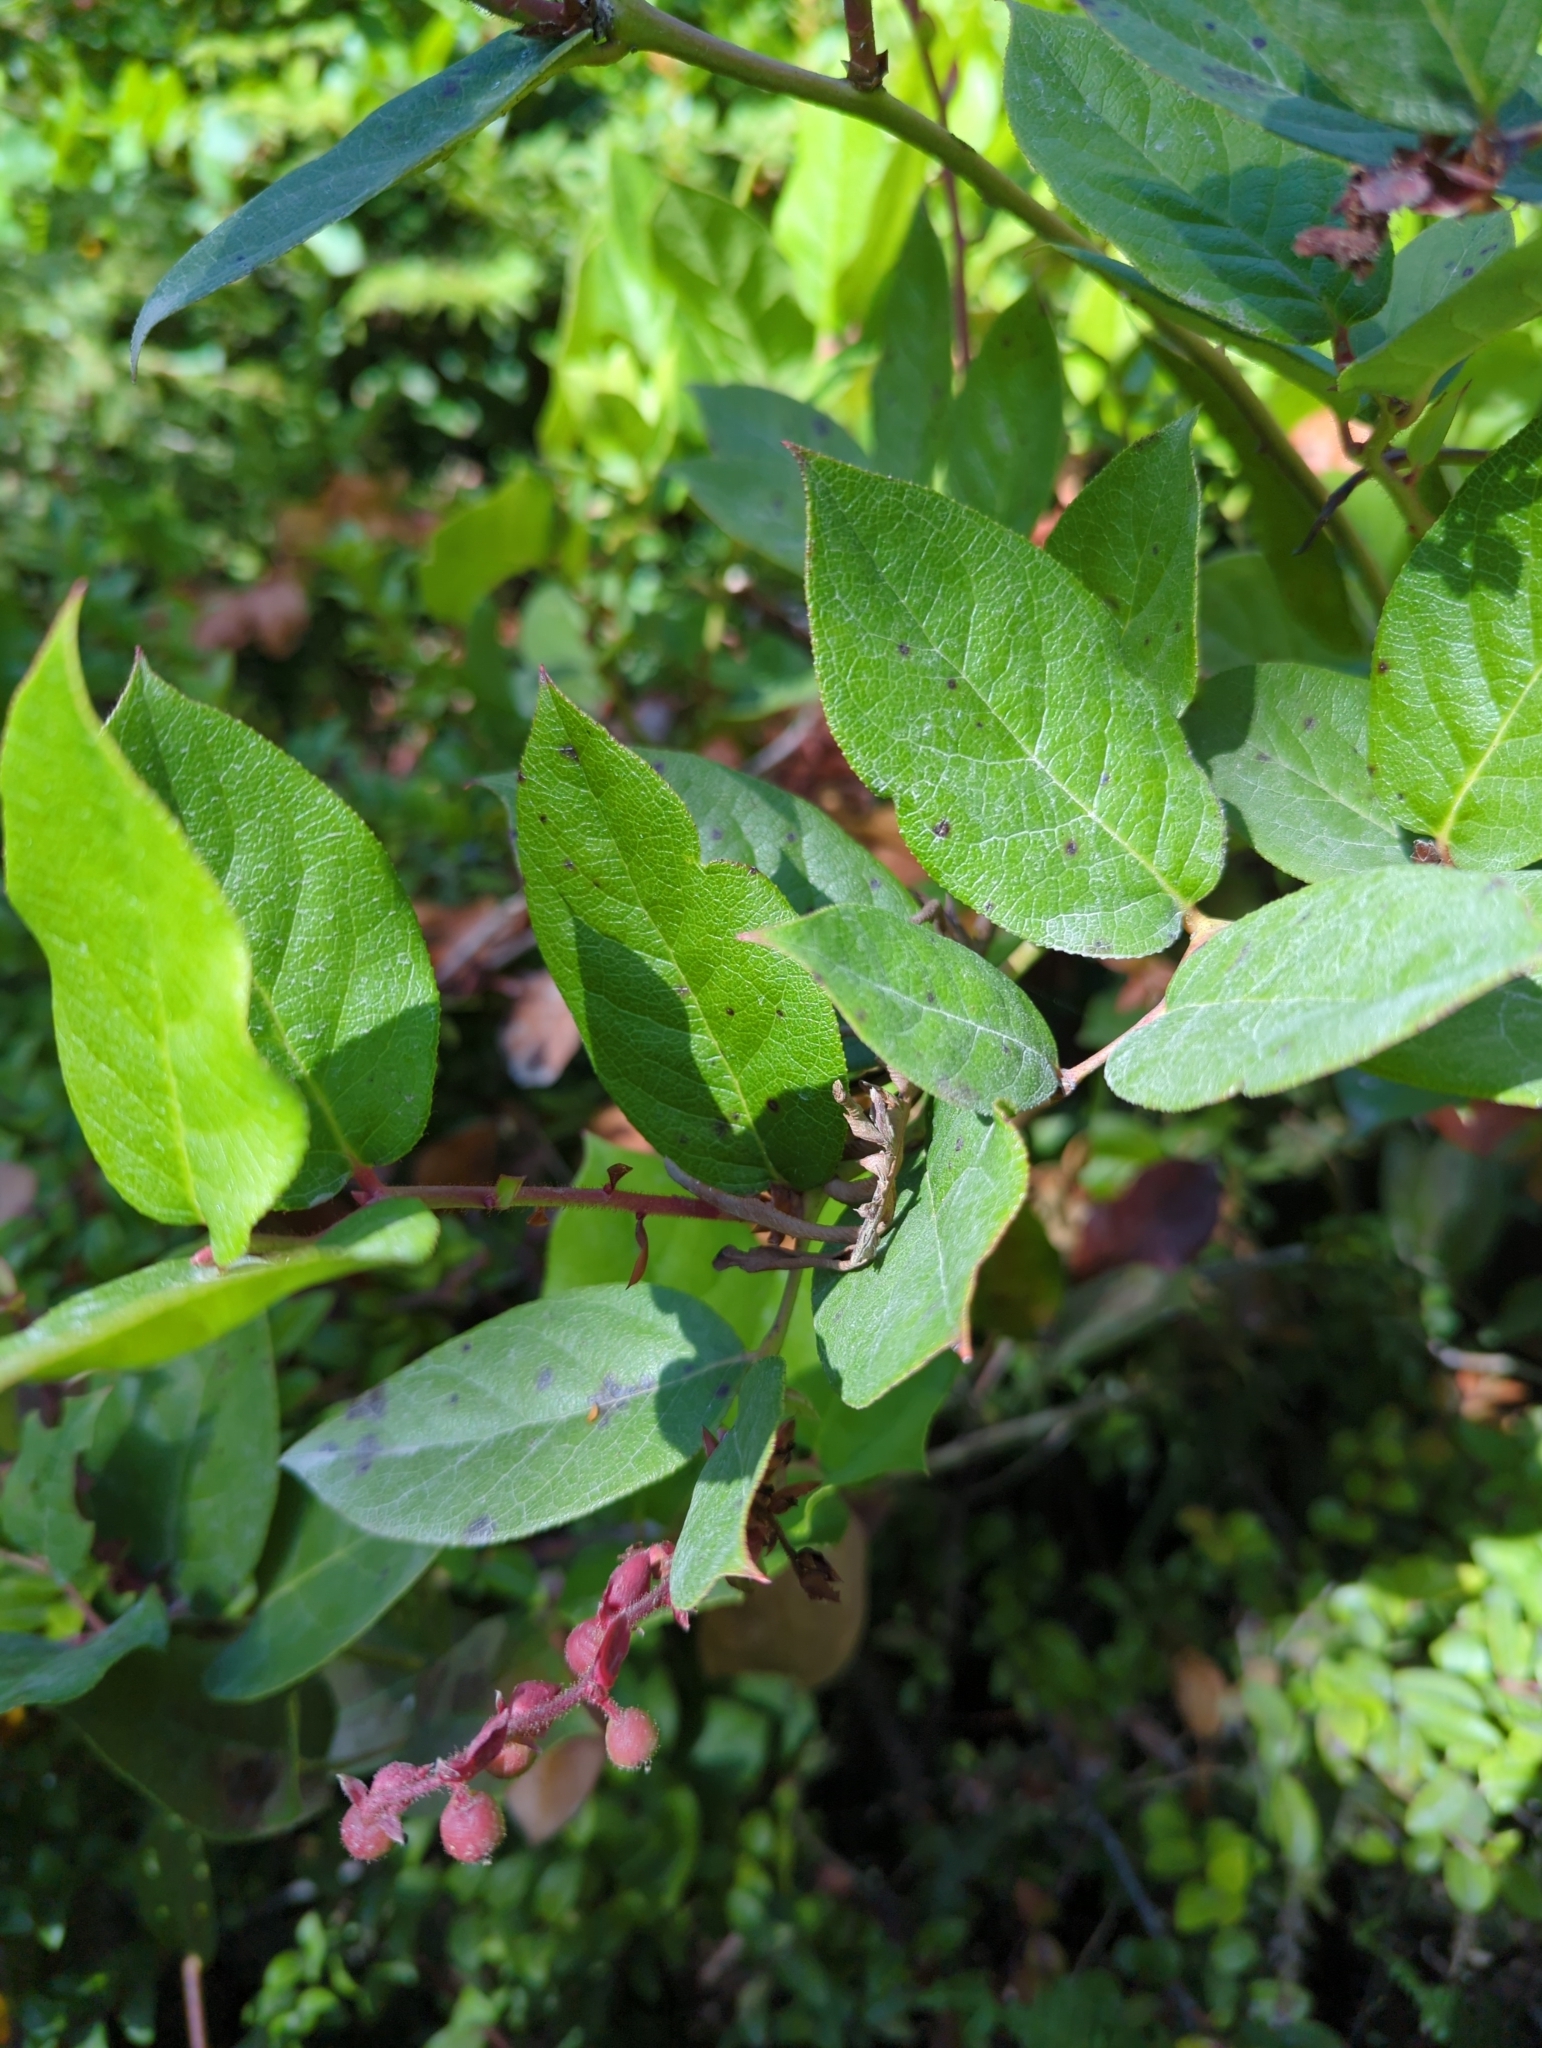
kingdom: Plantae
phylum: Tracheophyta
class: Magnoliopsida
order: Ericales
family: Ericaceae
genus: Gaultheria
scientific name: Gaultheria shallon
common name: Shallon
